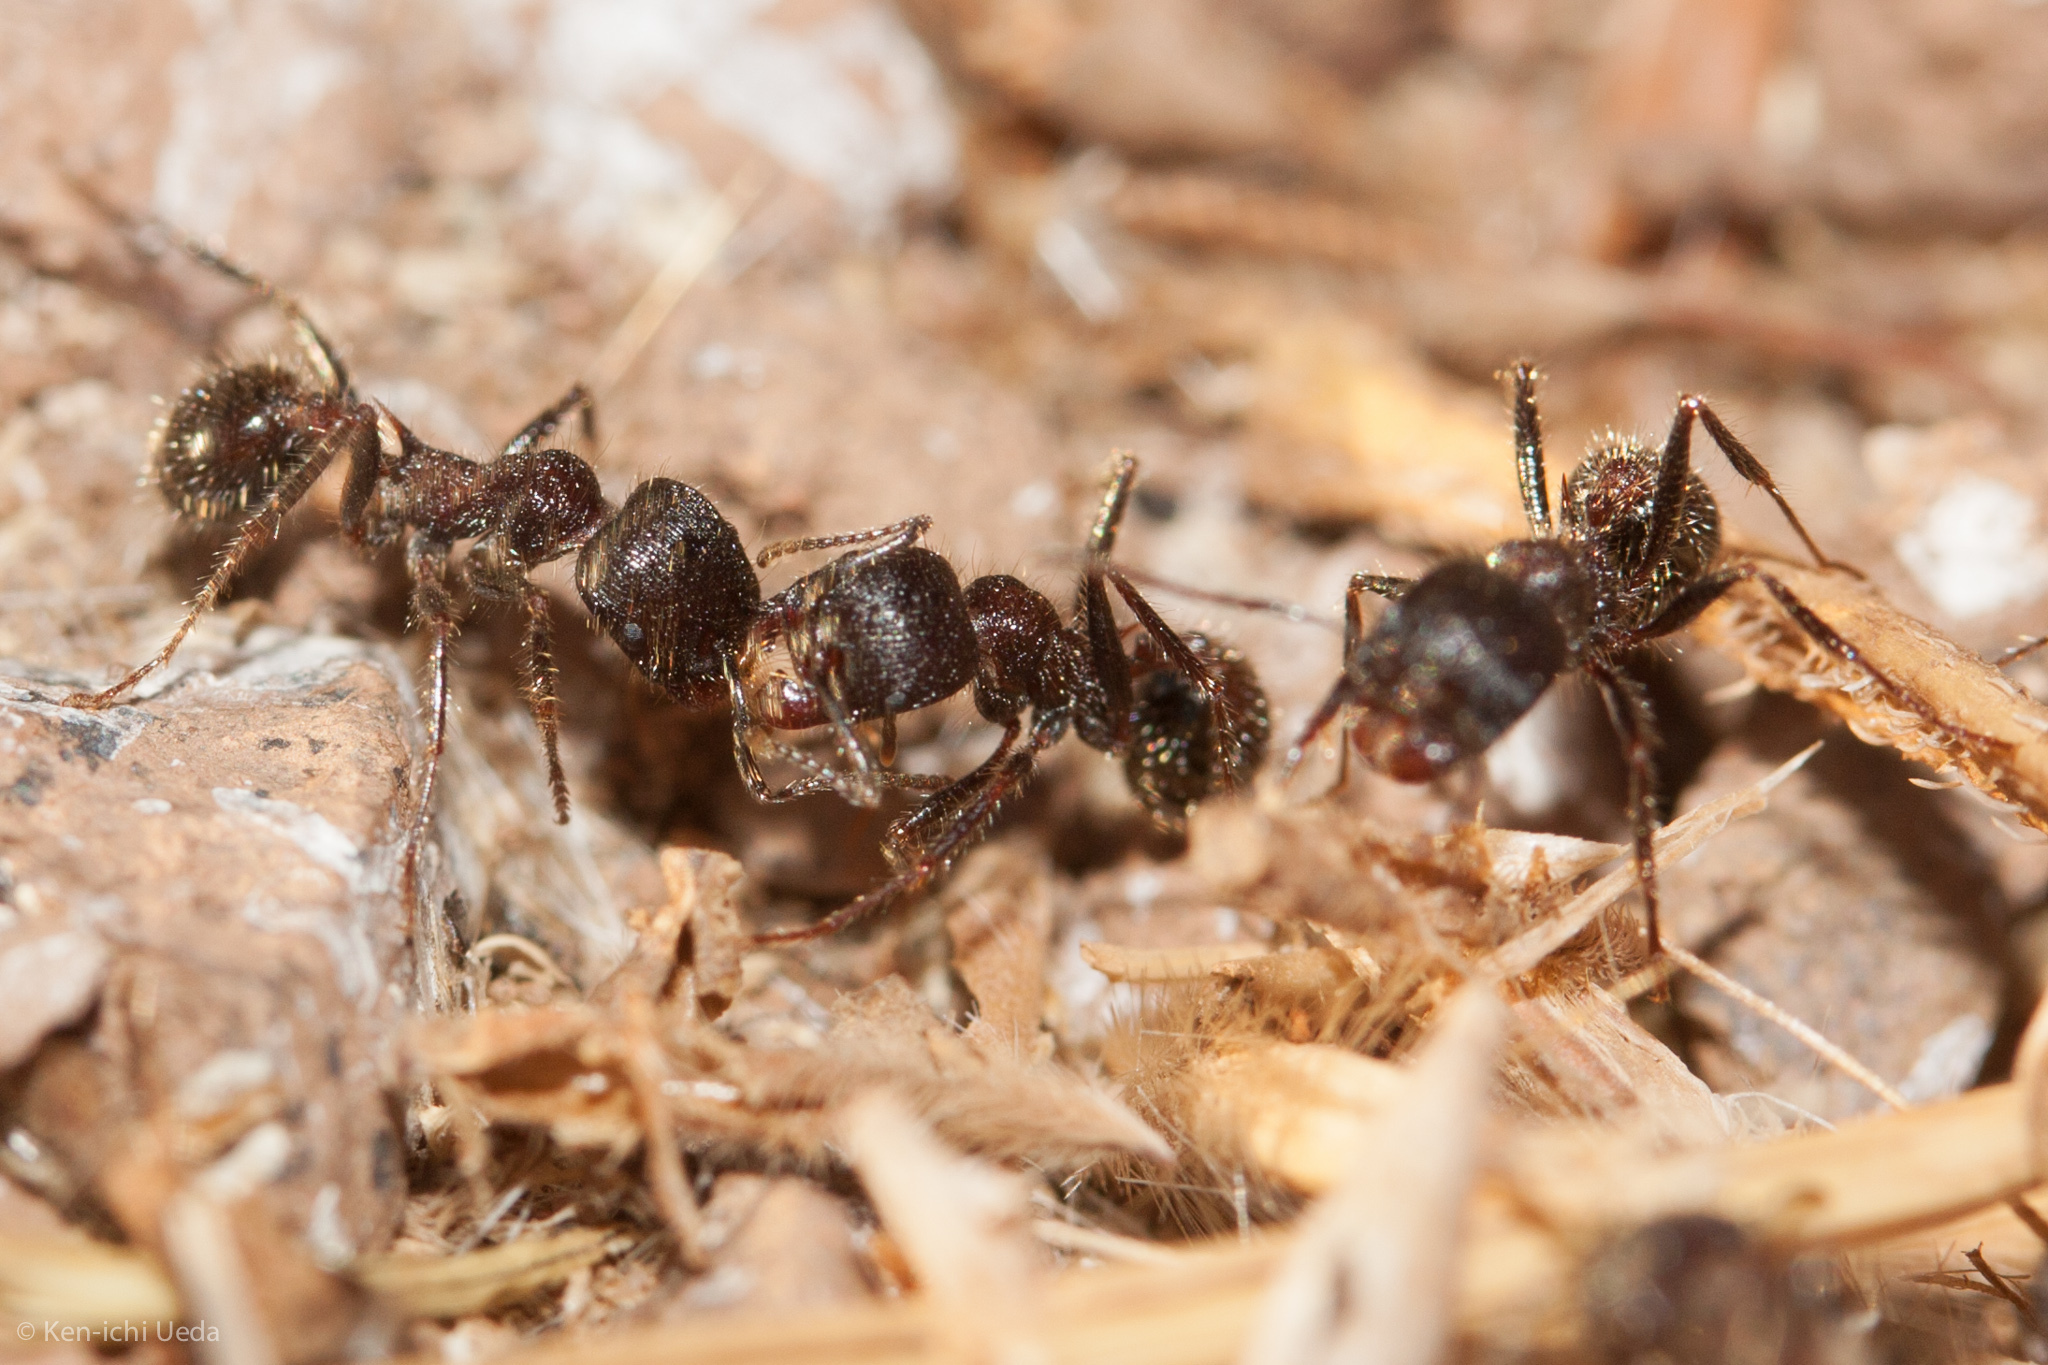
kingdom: Animalia
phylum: Arthropoda
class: Insecta
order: Hymenoptera
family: Formicidae
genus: Veromessor
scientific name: Veromessor andrei
